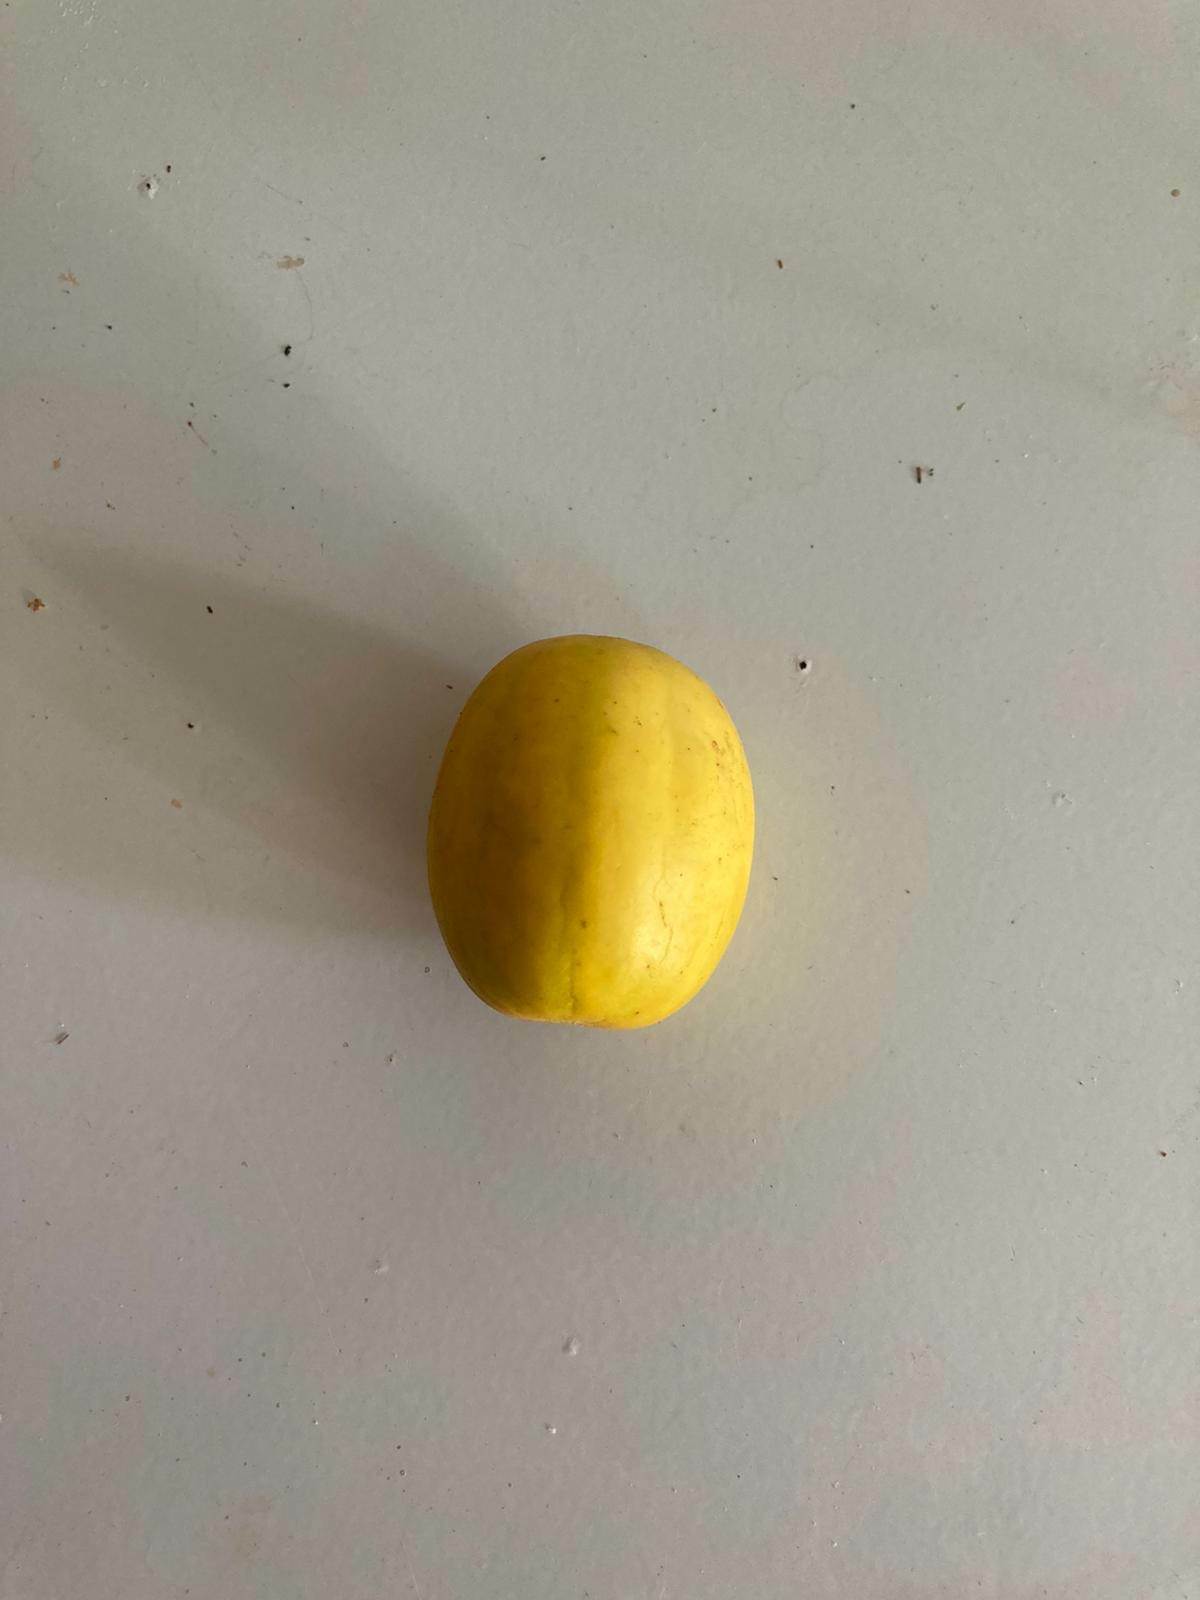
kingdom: Plantae
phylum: Tracheophyta
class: Magnoliopsida
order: Ericales
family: Sapotaceae
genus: Pouteria
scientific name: Pouteria dominigensis
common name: Jacana
